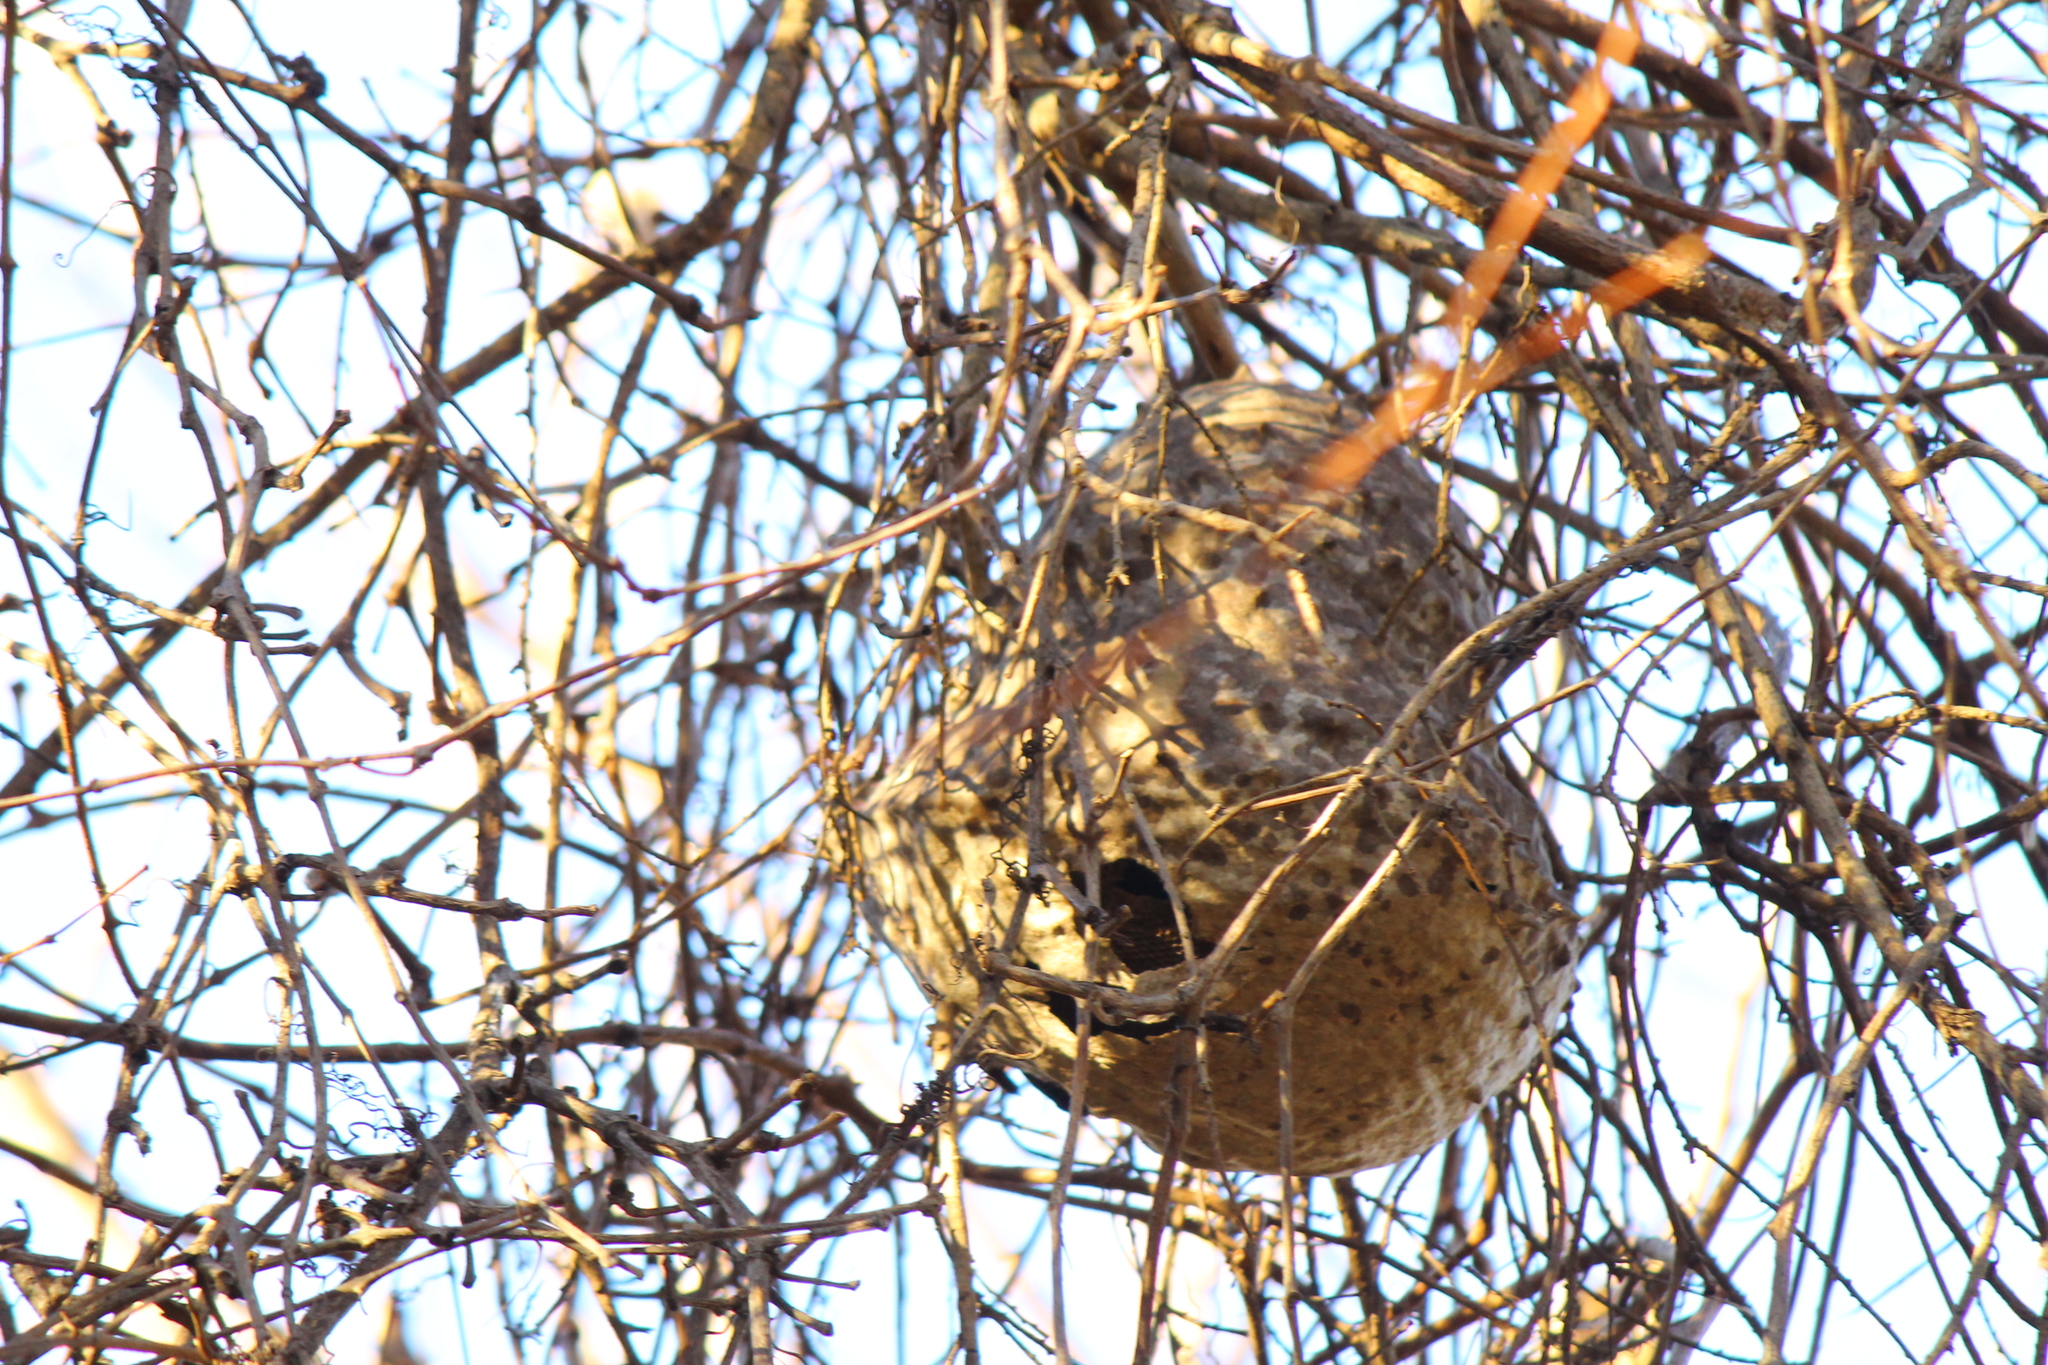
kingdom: Animalia
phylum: Arthropoda
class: Insecta
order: Hymenoptera
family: Eumenidae
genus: Polybia
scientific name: Polybia scutellaris
